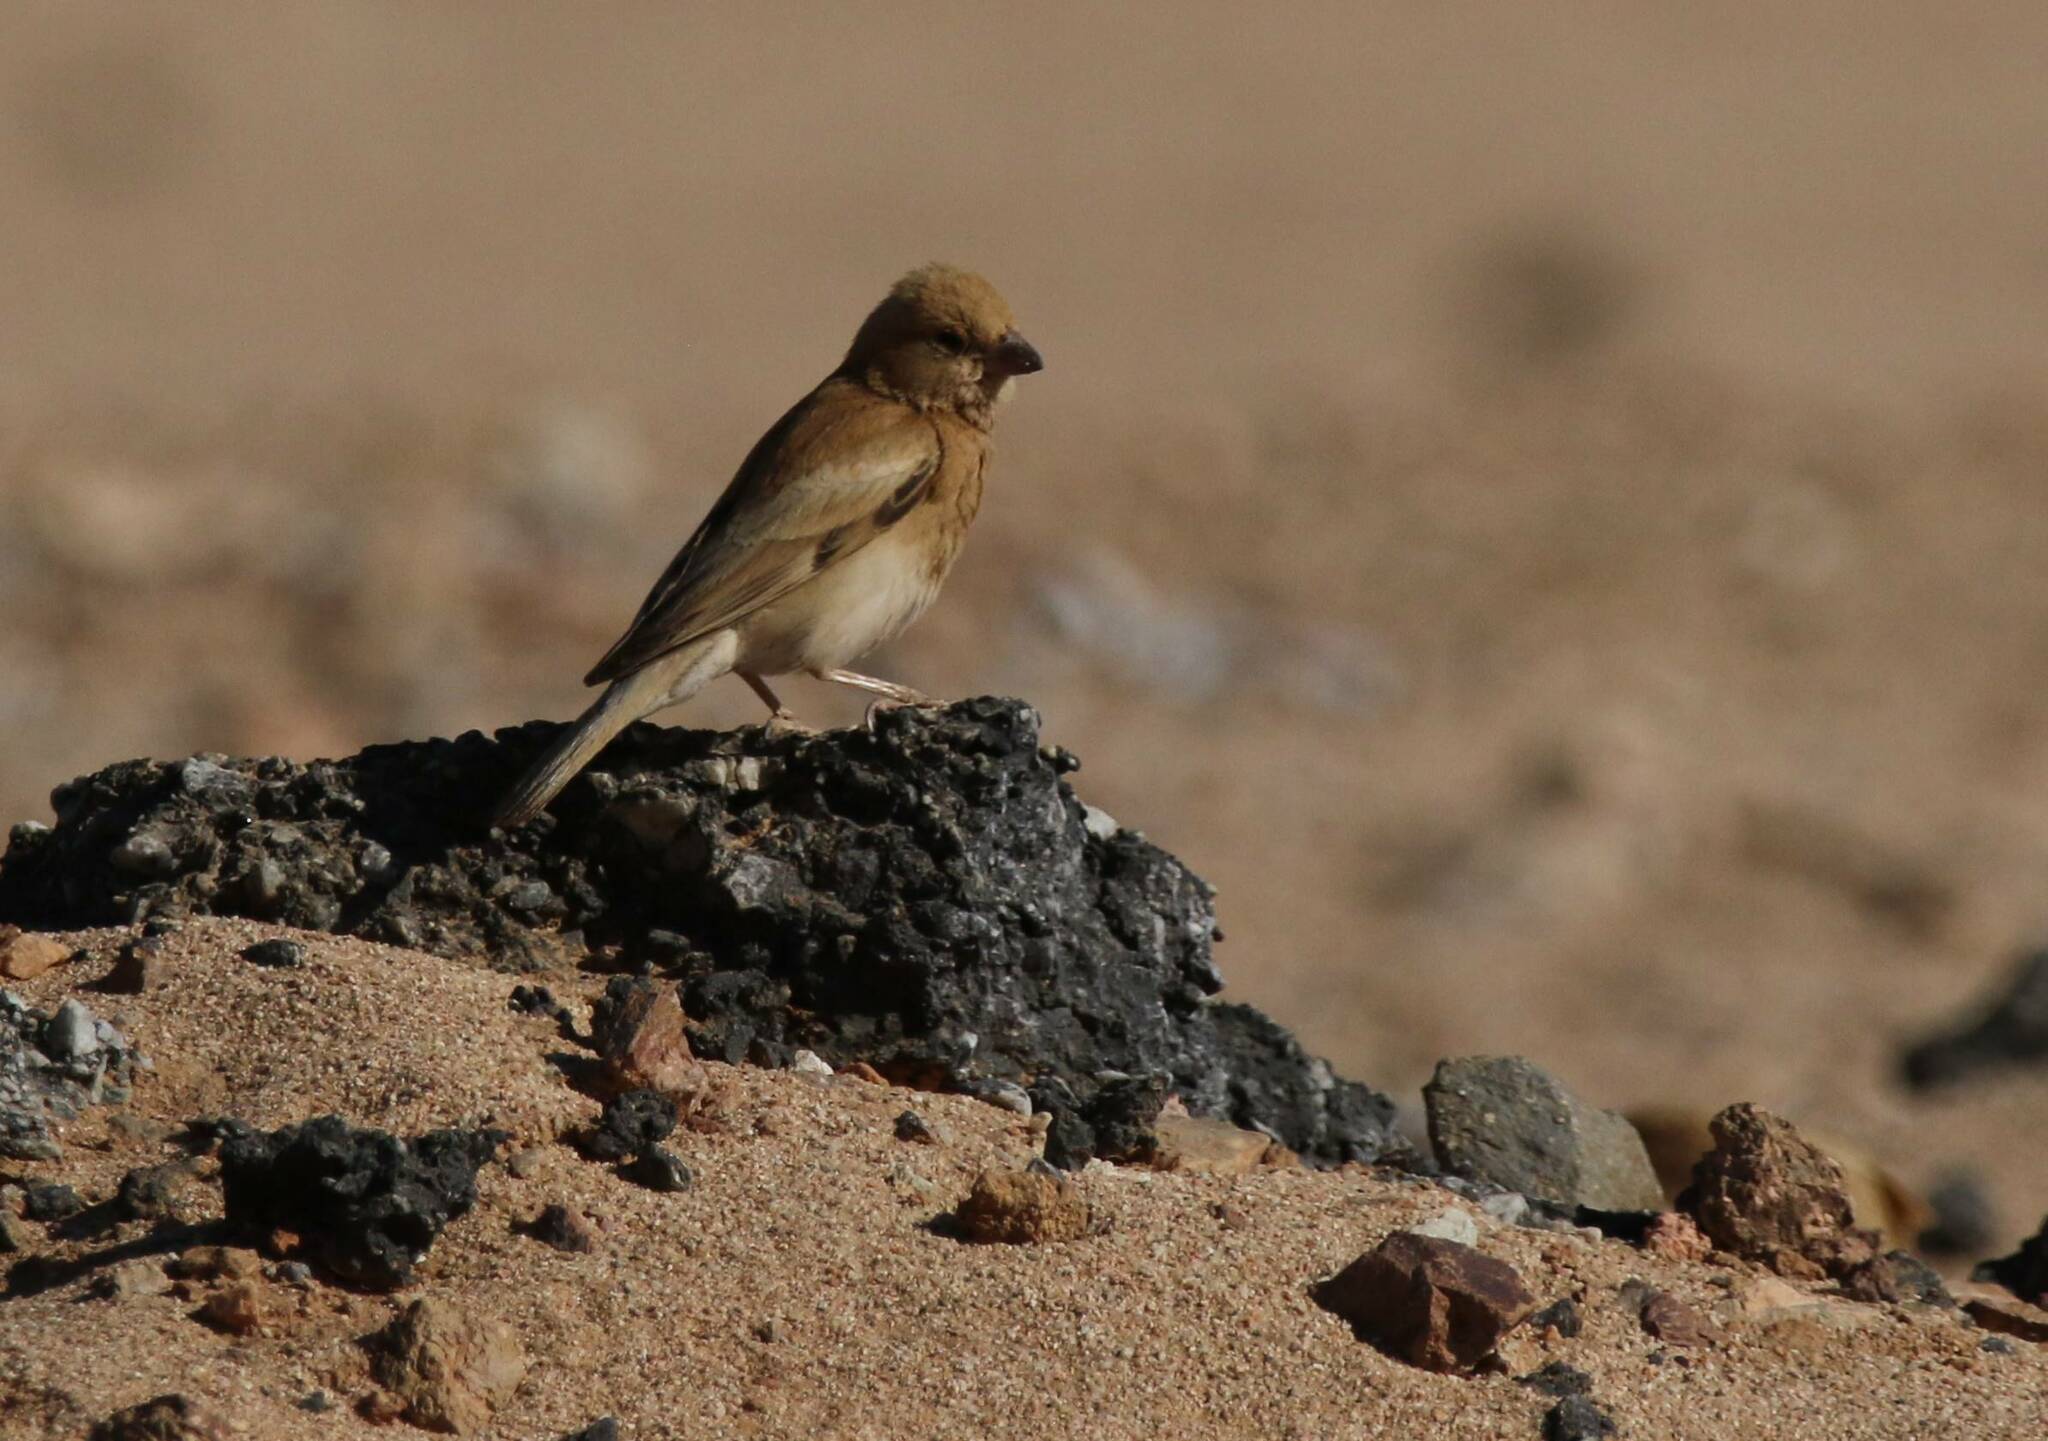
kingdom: Animalia
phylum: Chordata
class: Aves
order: Passeriformes
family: Passeridae
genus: Passer
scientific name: Passer simplex
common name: Desert sparrow
